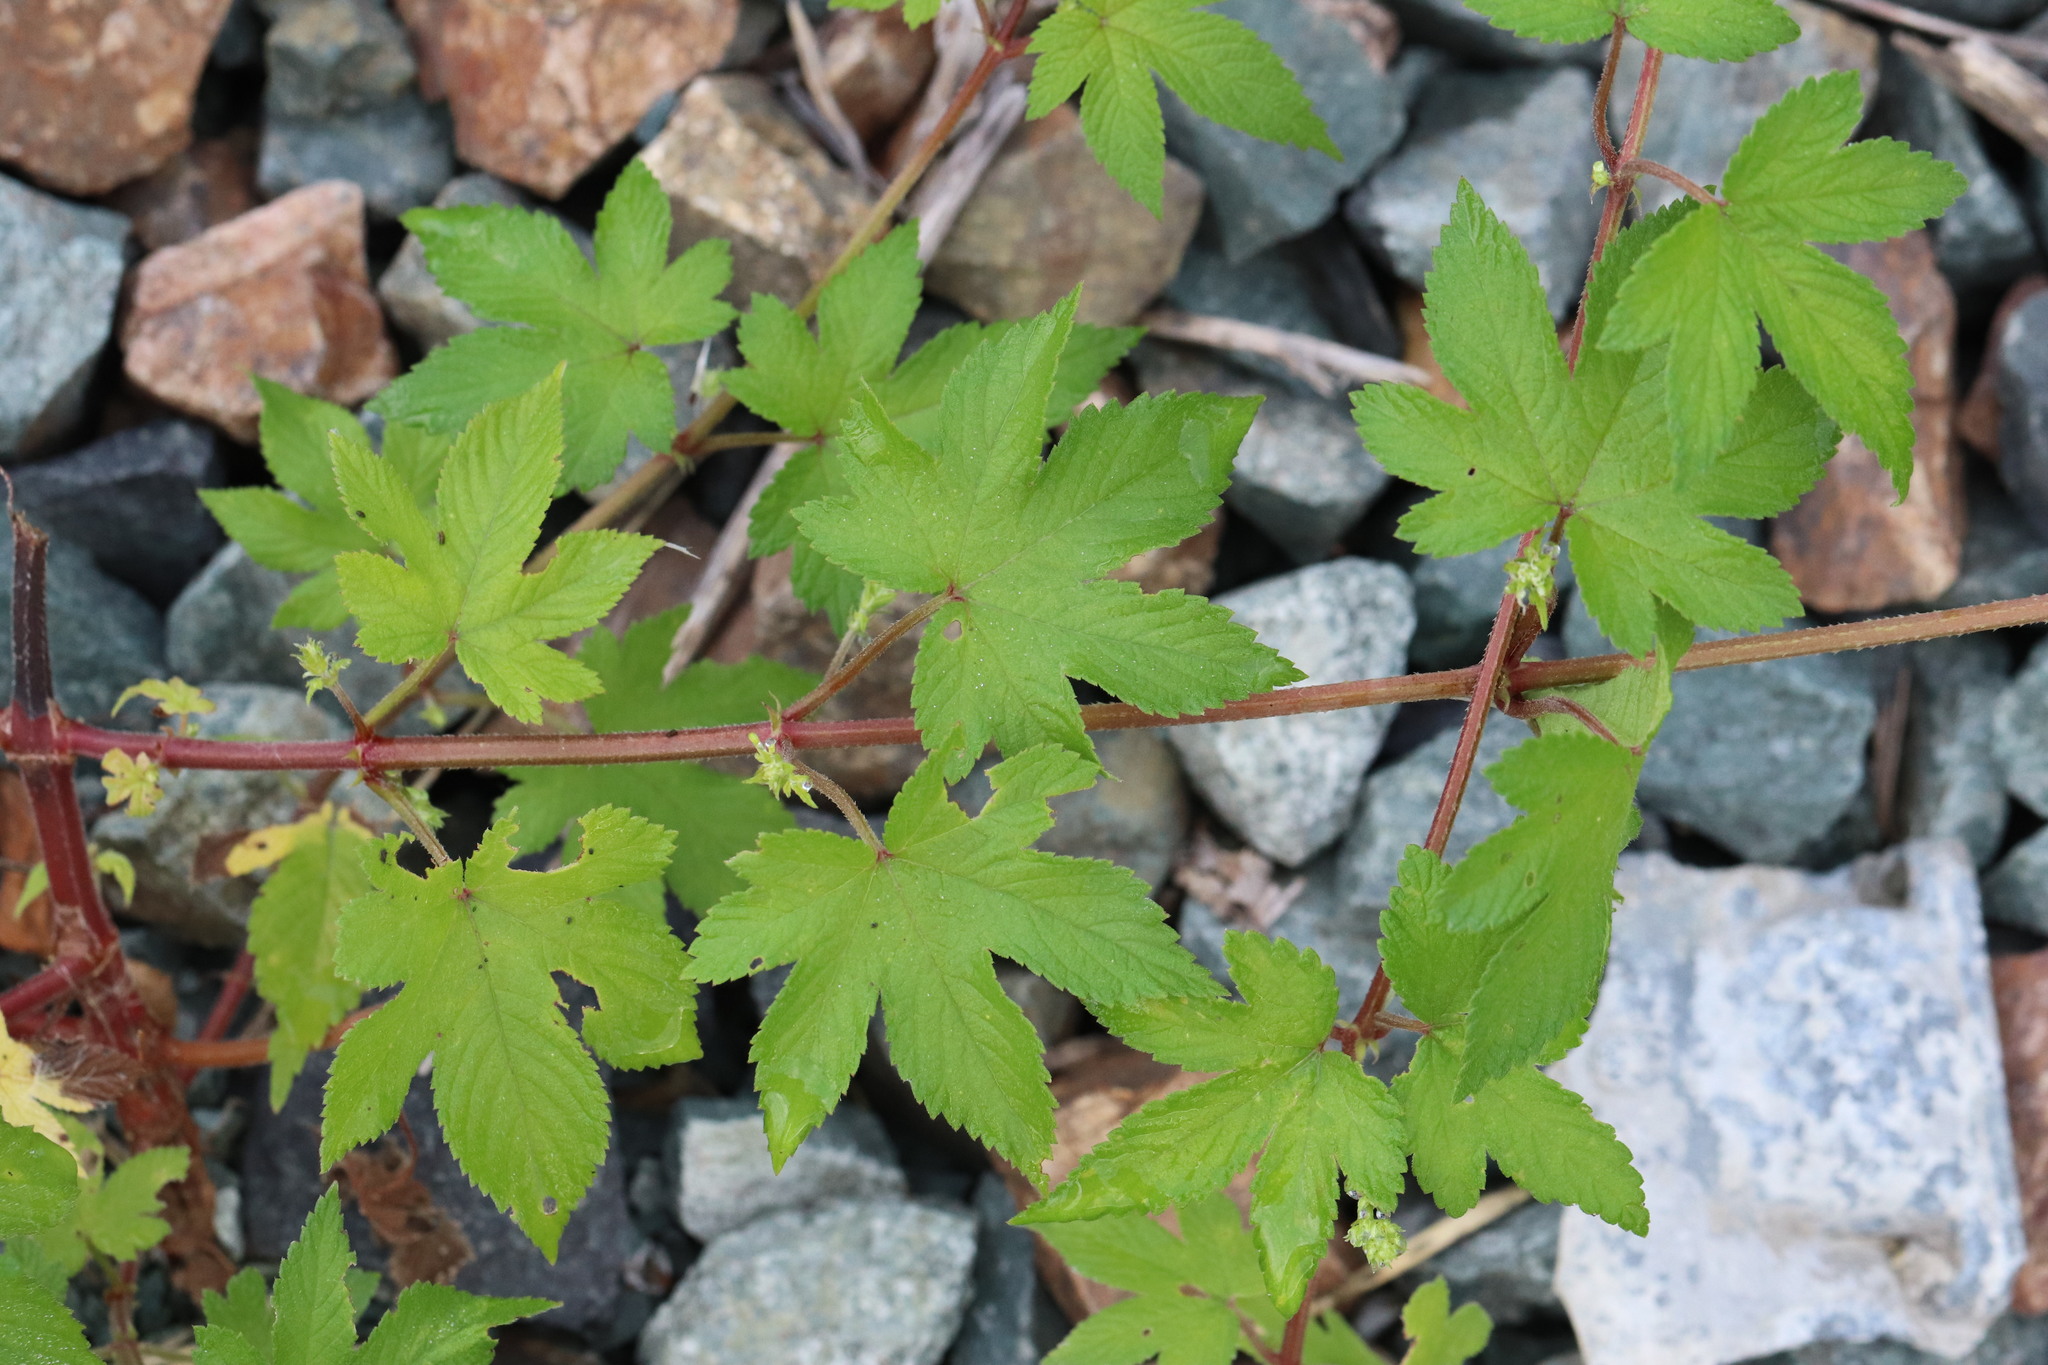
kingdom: Plantae
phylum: Tracheophyta
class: Magnoliopsida
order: Rosales
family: Cannabaceae
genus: Humulus
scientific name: Humulus scandens
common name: Japanese hop
